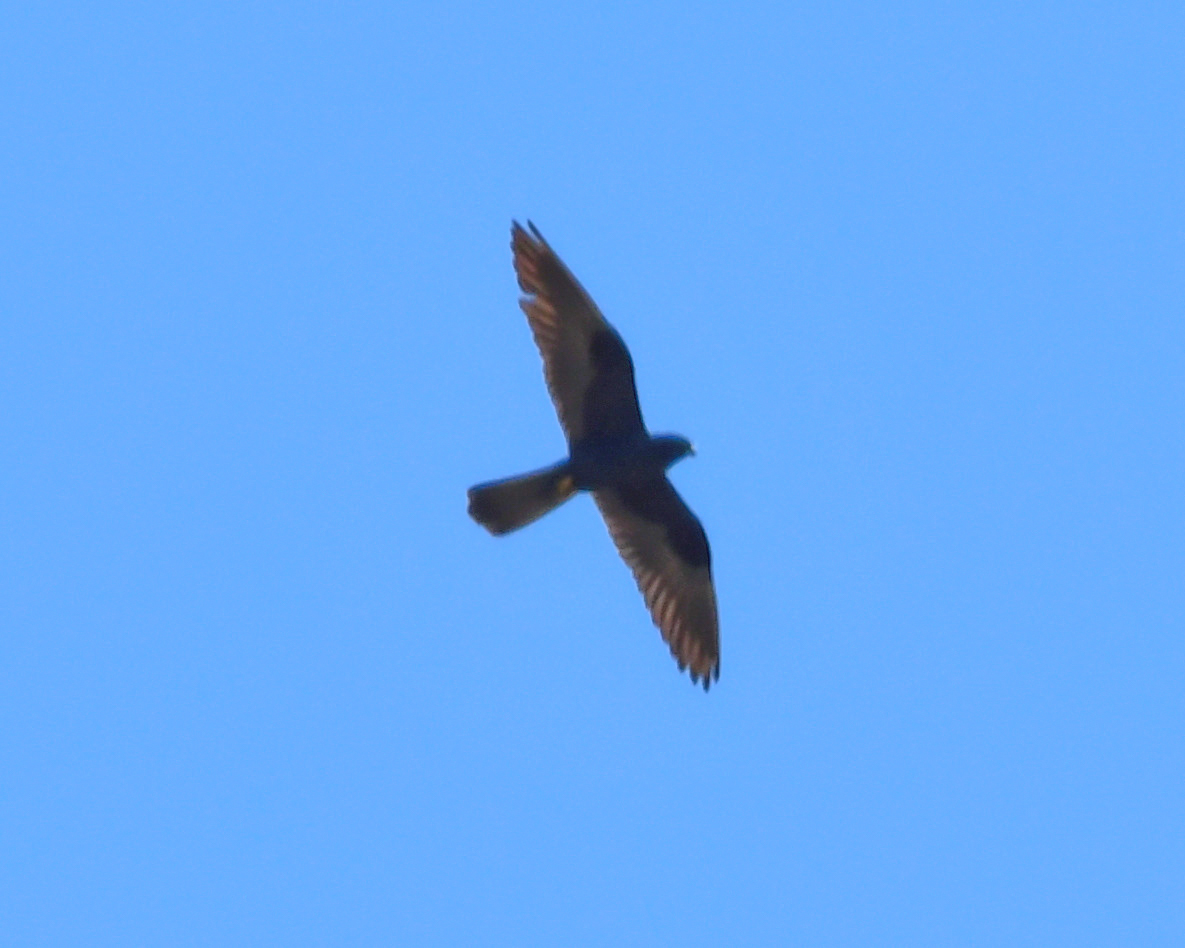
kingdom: Animalia
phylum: Chordata
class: Aves
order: Falconiformes
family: Falconidae
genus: Falco
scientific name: Falco eleonorae
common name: Eleonora's falcon
